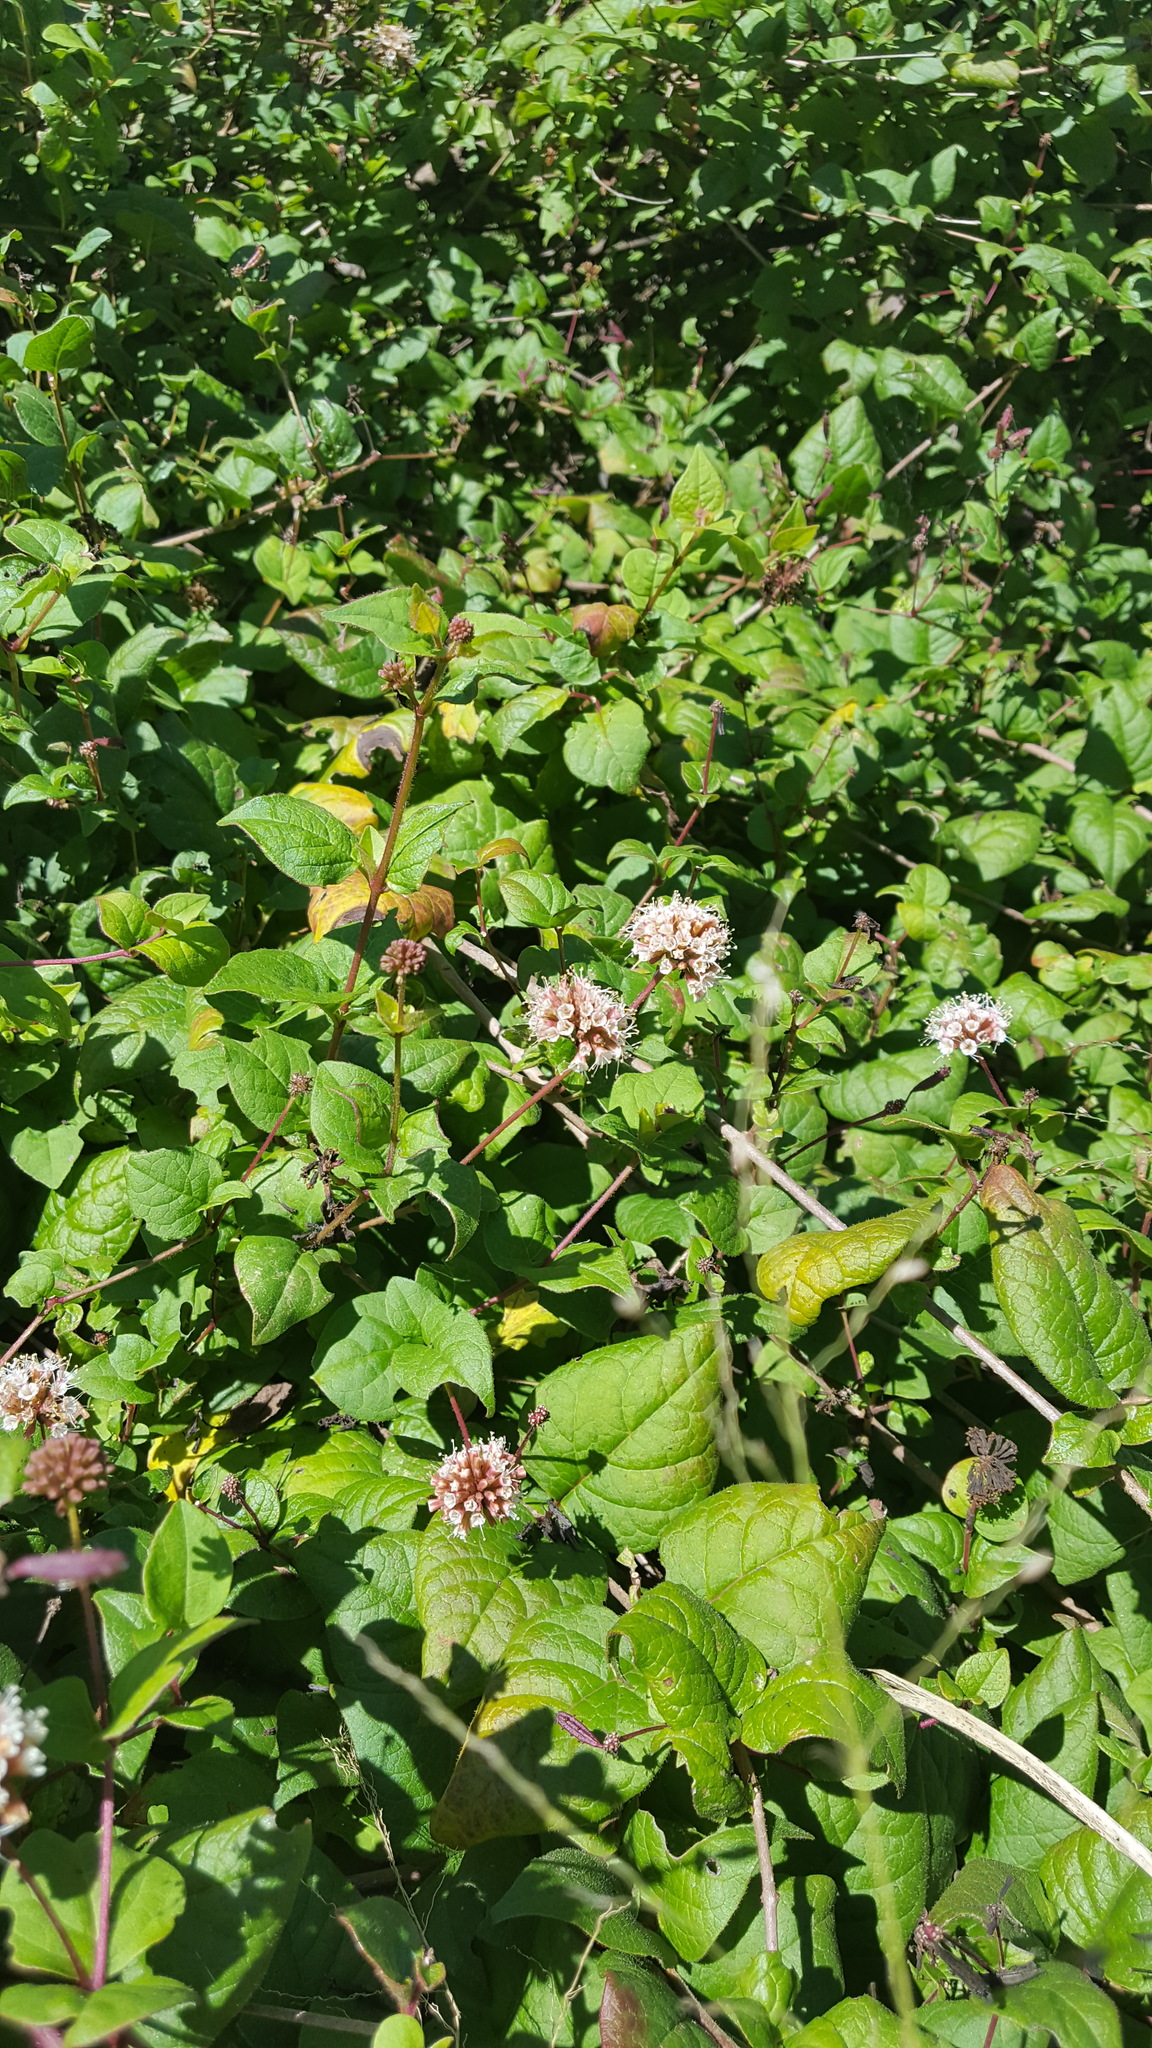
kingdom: Plantae
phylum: Tracheophyta
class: Magnoliopsida
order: Caryophyllales
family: Nyctaginaceae
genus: Pisoniella
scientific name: Pisoniella arborescens
